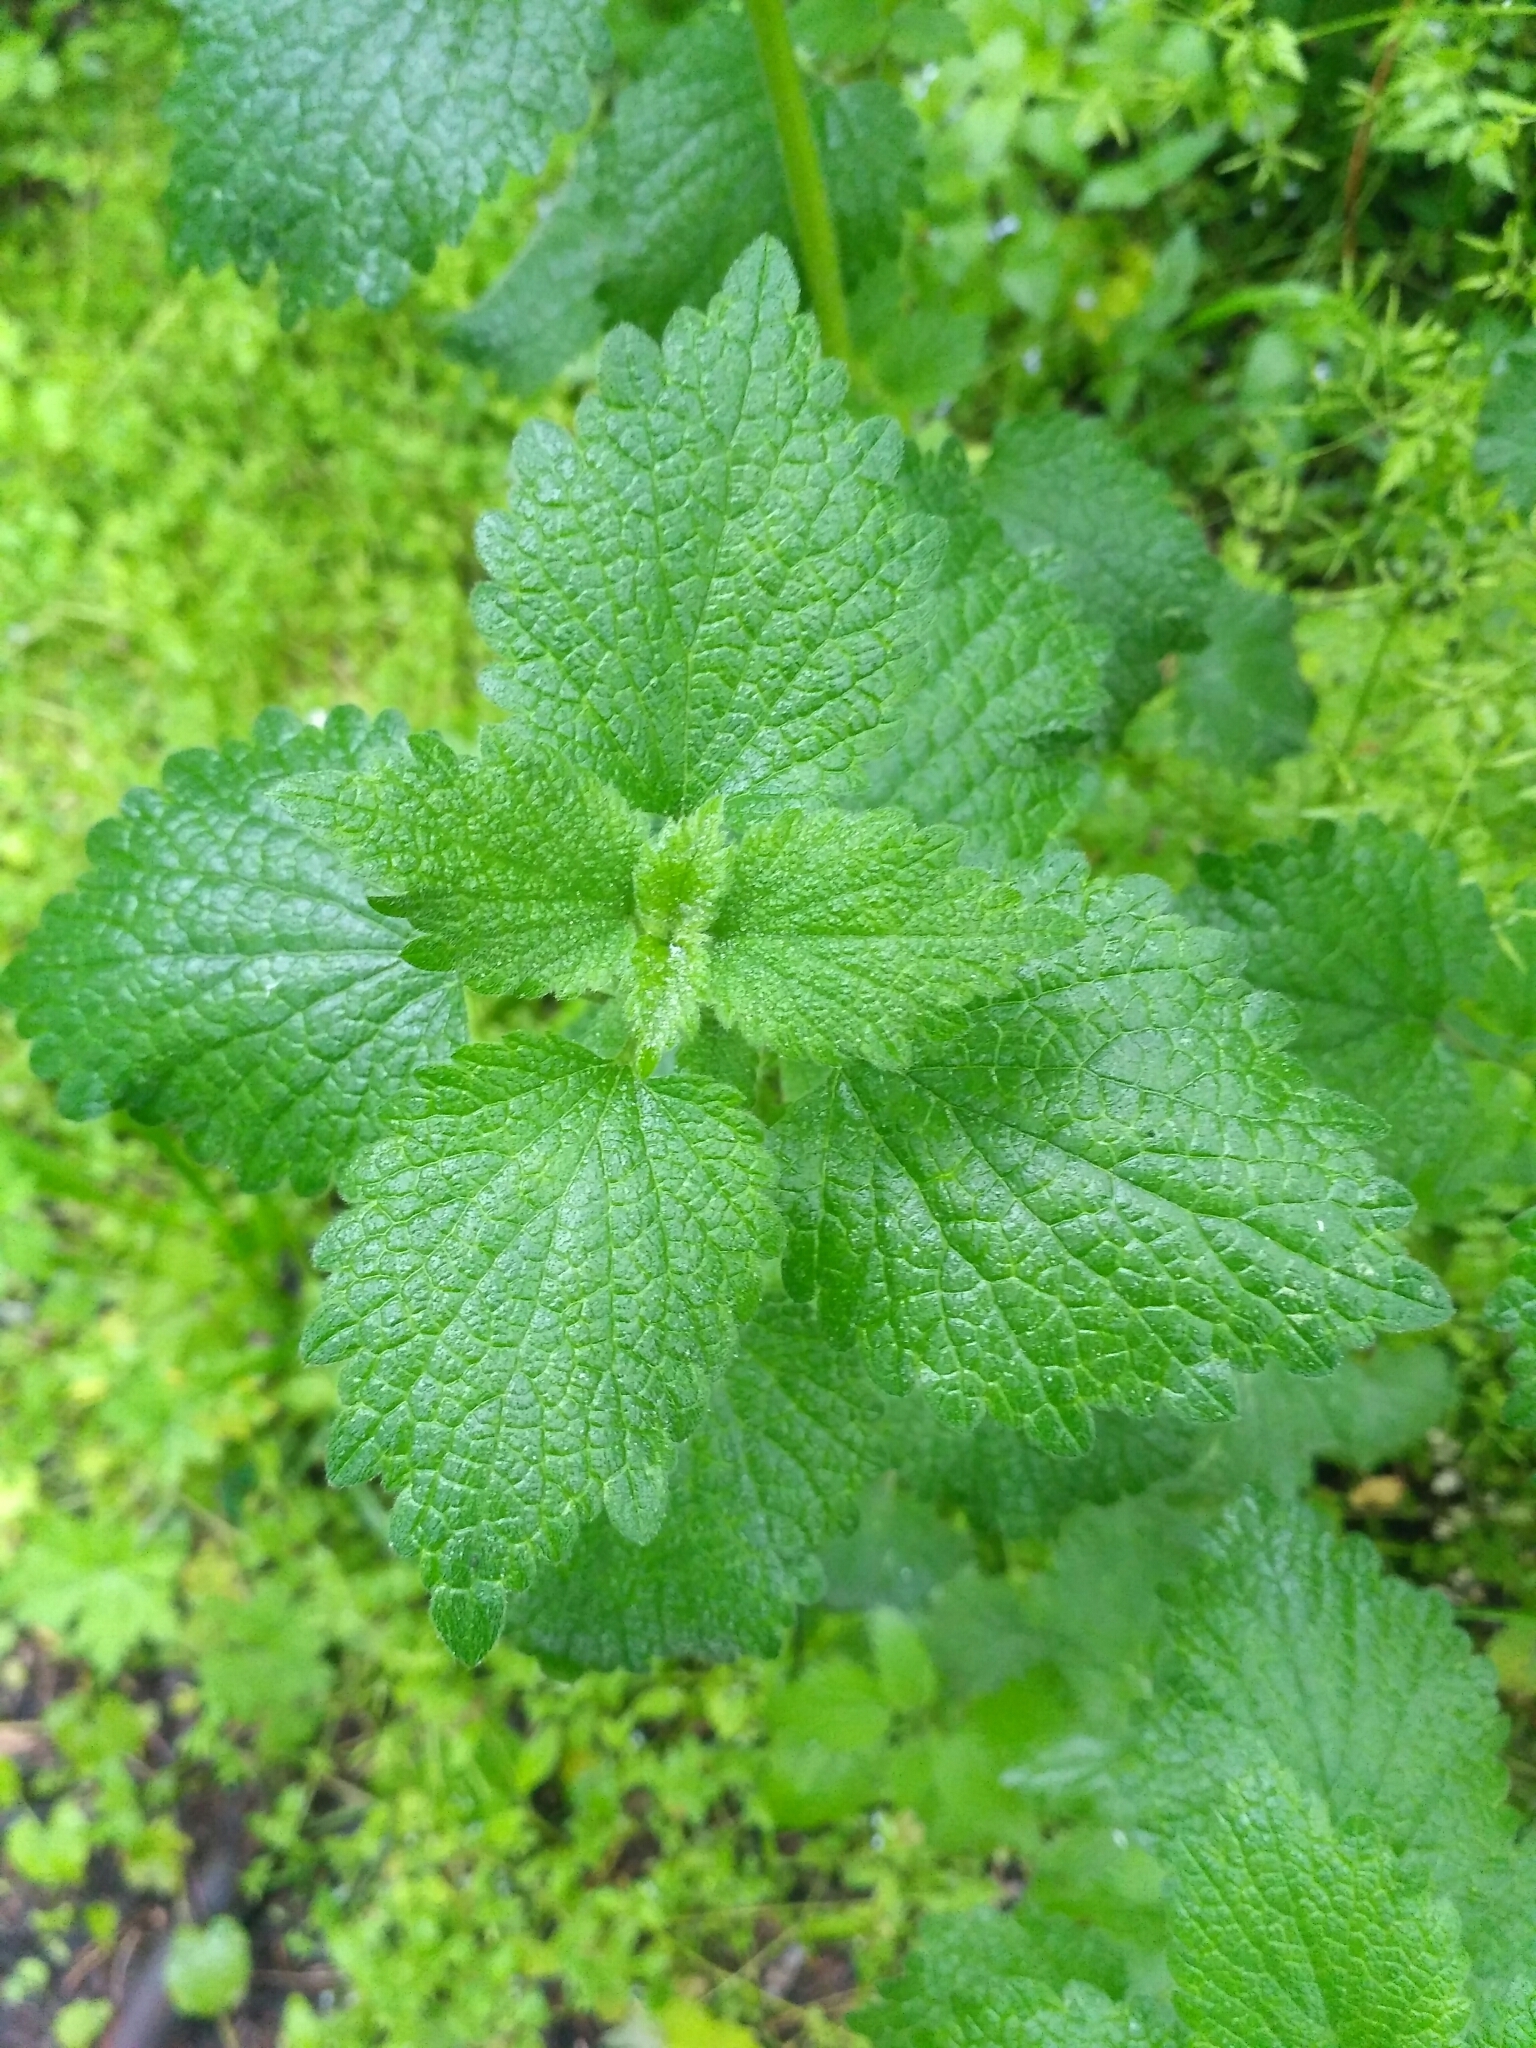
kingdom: Plantae
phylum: Tracheophyta
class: Magnoliopsida
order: Lamiales
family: Lamiaceae
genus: Ballota
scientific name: Ballota nigra
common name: Black horehound
